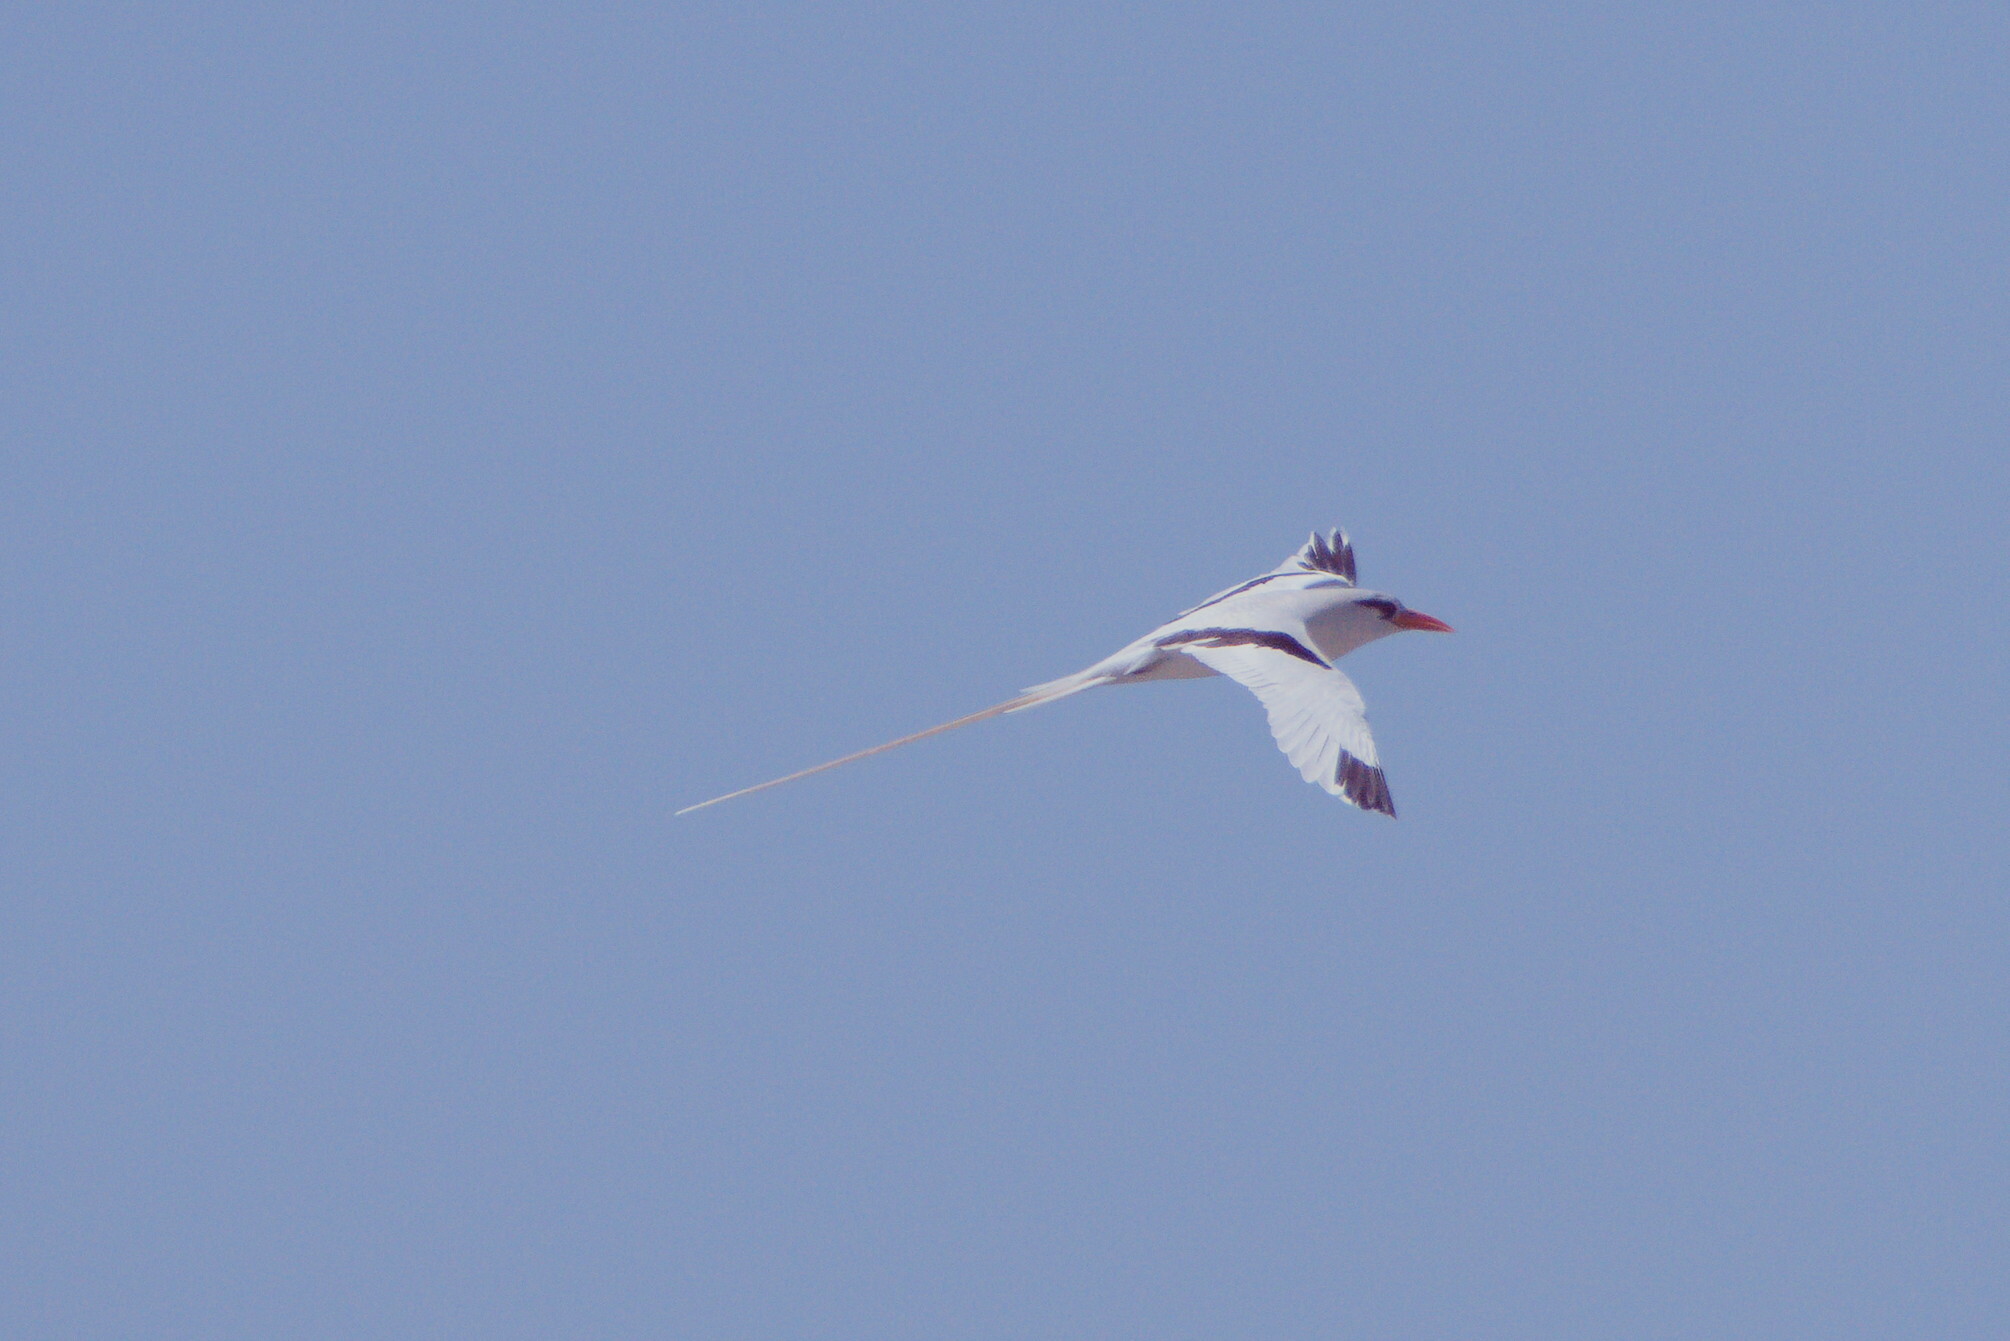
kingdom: Animalia
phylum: Chordata
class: Aves
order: Phaethontiformes
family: Phaethontidae
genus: Phaethon
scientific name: Phaethon lepturus
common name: White-tailed tropicbird
